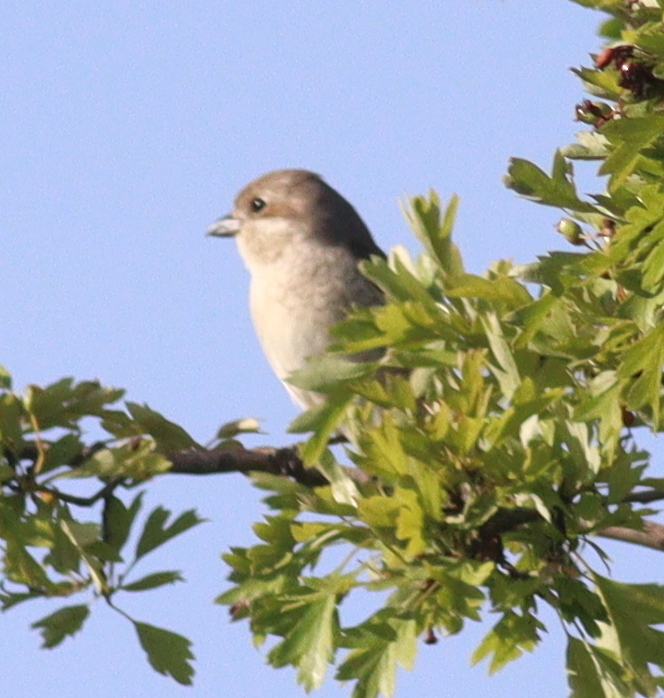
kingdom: Animalia
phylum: Chordata
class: Aves
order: Passeriformes
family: Laniidae
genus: Lanius
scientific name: Lanius collurio
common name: Red-backed shrike
